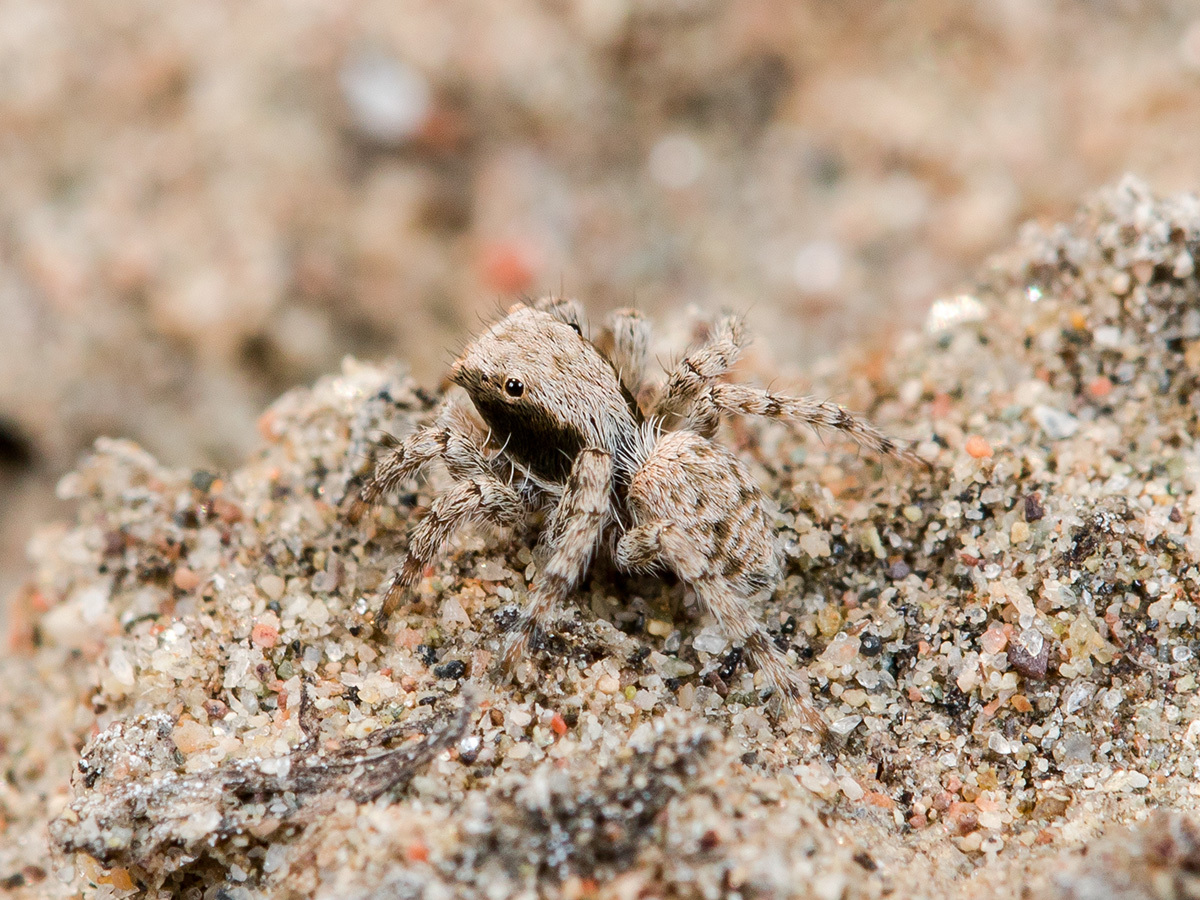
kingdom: Animalia
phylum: Arthropoda
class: Arachnida
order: Araneae
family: Salticidae
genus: Aelurillus
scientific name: Aelurillus andreevae
